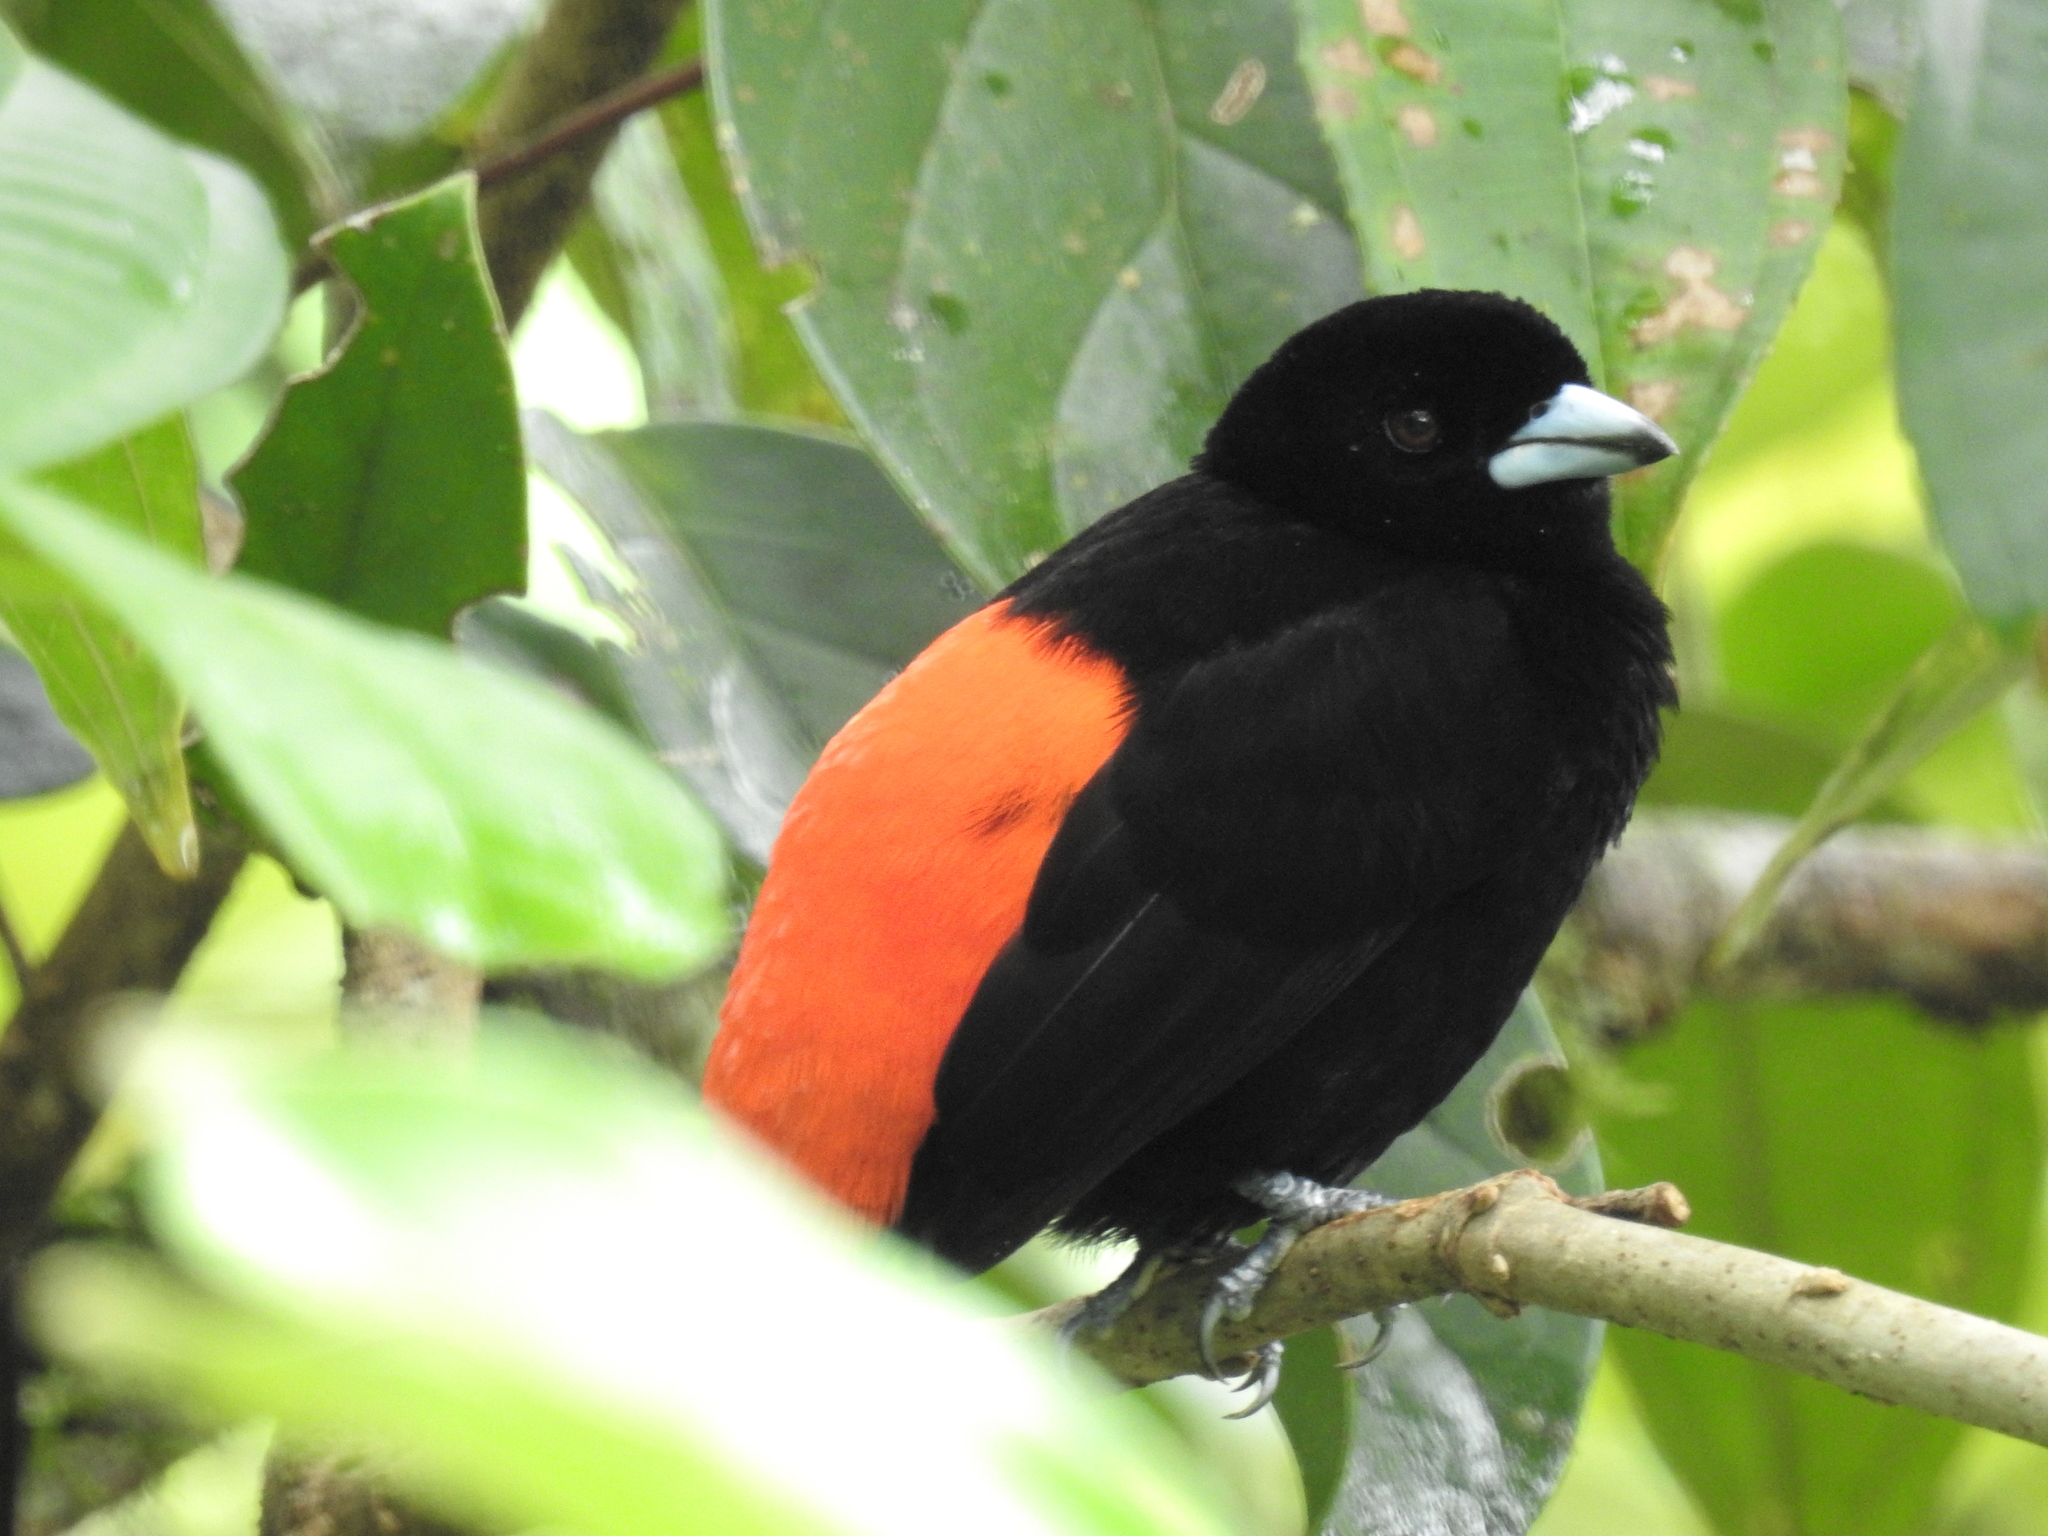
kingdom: Animalia
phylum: Chordata
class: Aves
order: Passeriformes
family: Thraupidae
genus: Ramphocelus
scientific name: Ramphocelus passerinii
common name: Passerini's tanager
